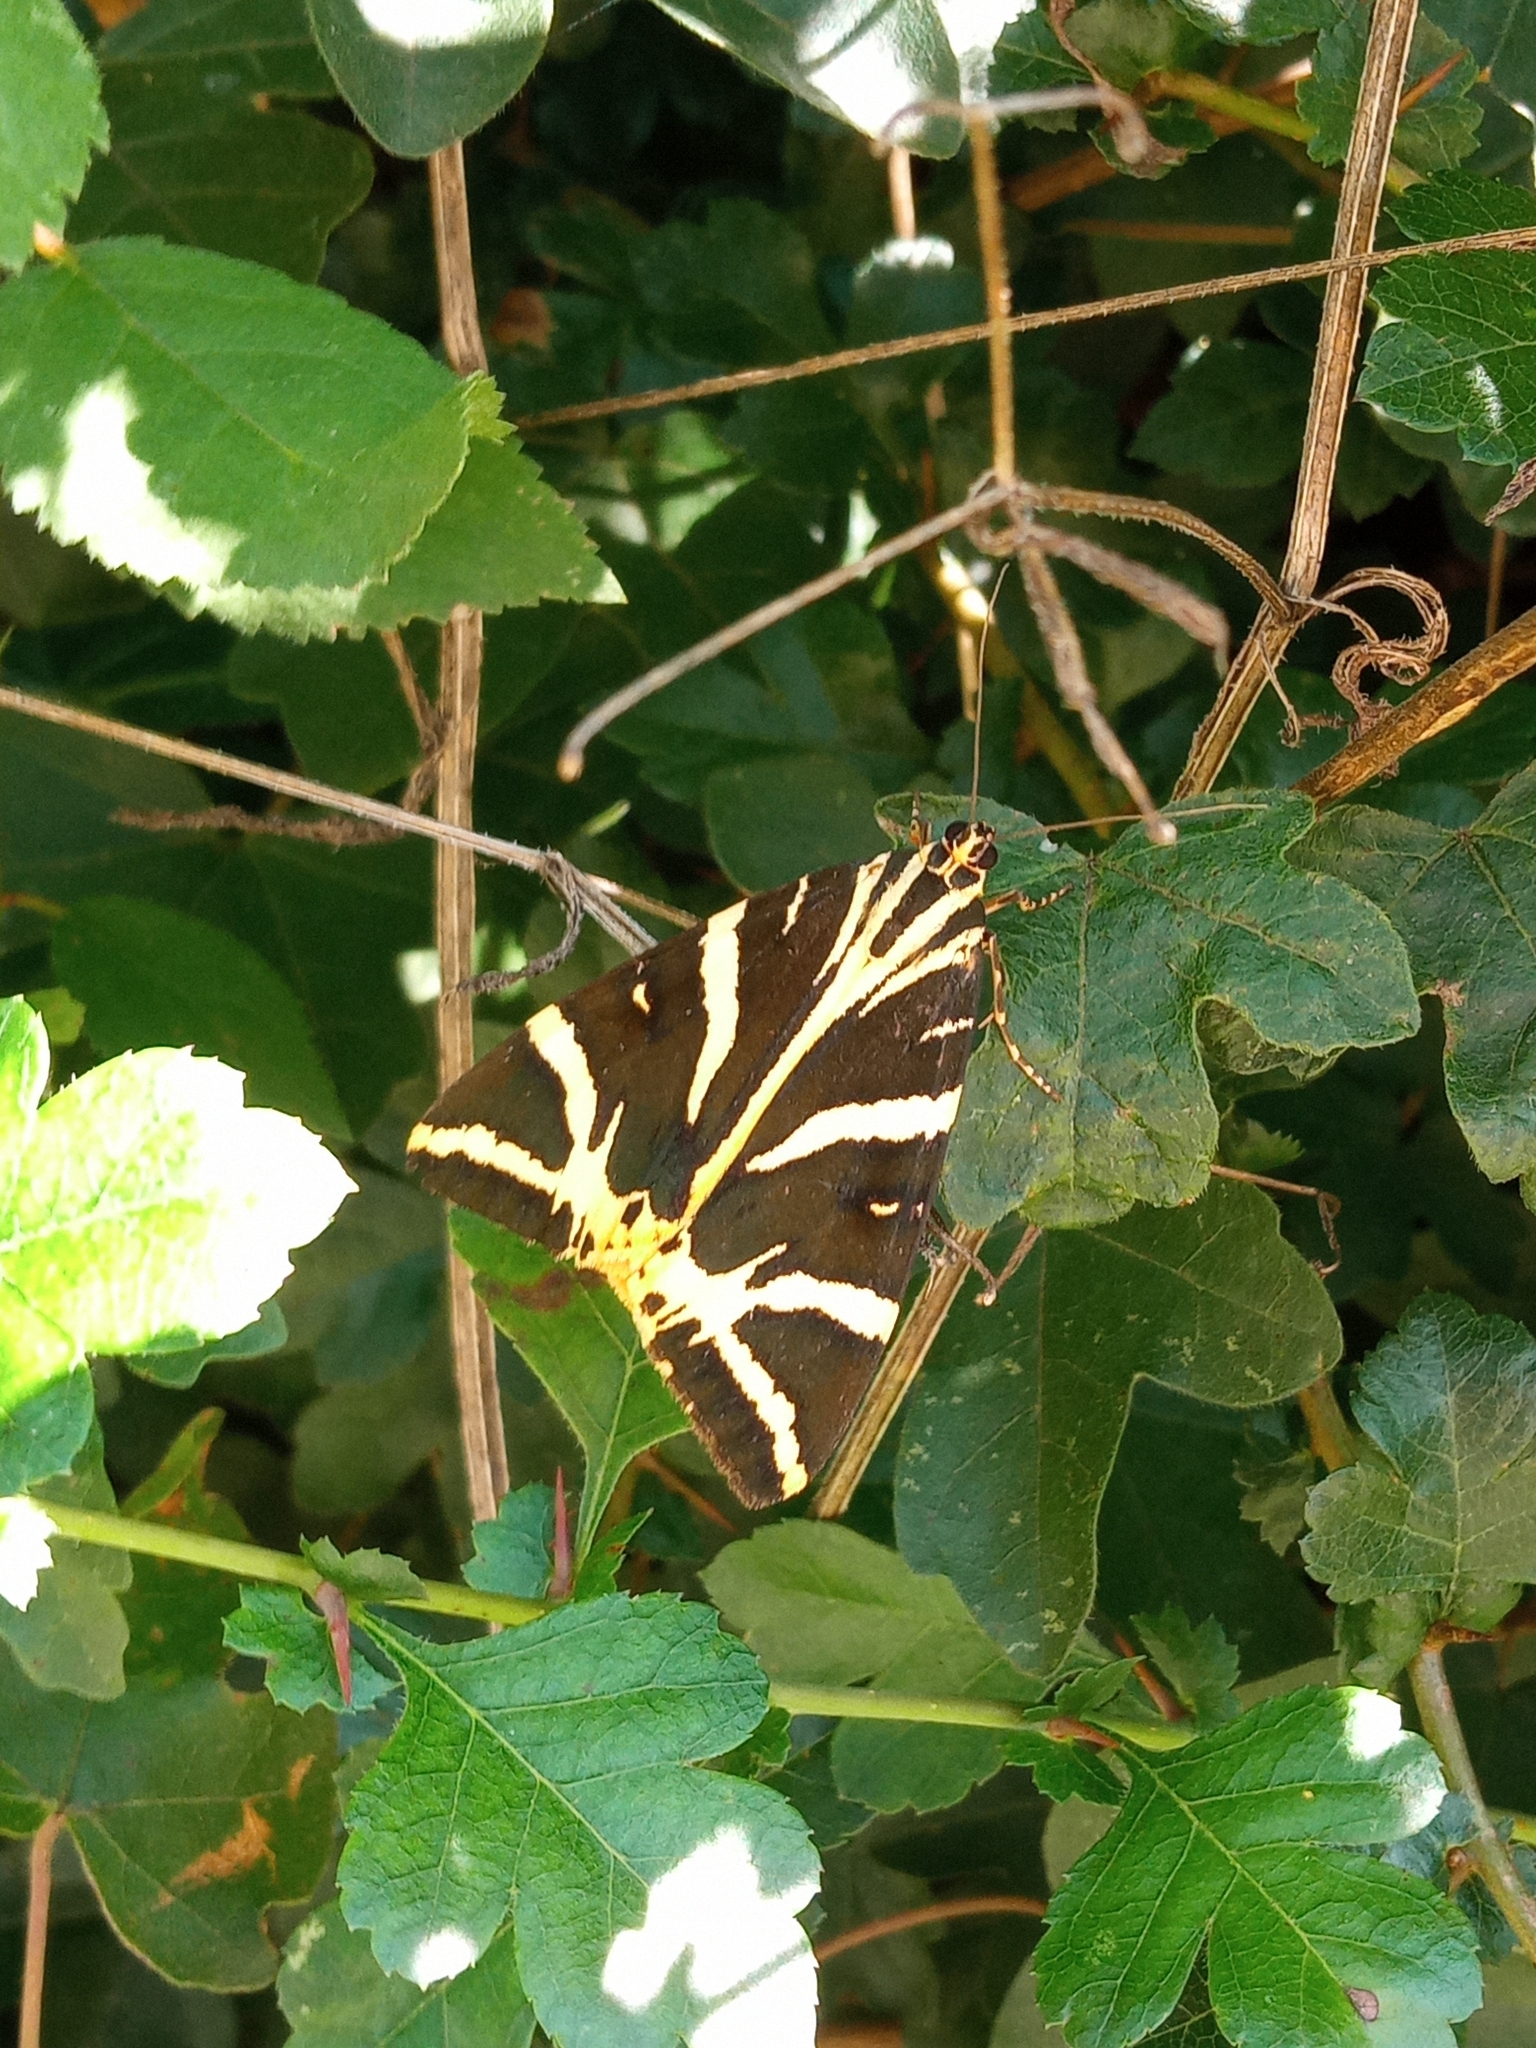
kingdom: Animalia
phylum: Arthropoda
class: Insecta
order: Lepidoptera
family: Erebidae
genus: Euplagia
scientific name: Euplagia quadripunctaria
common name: Jersey tiger
